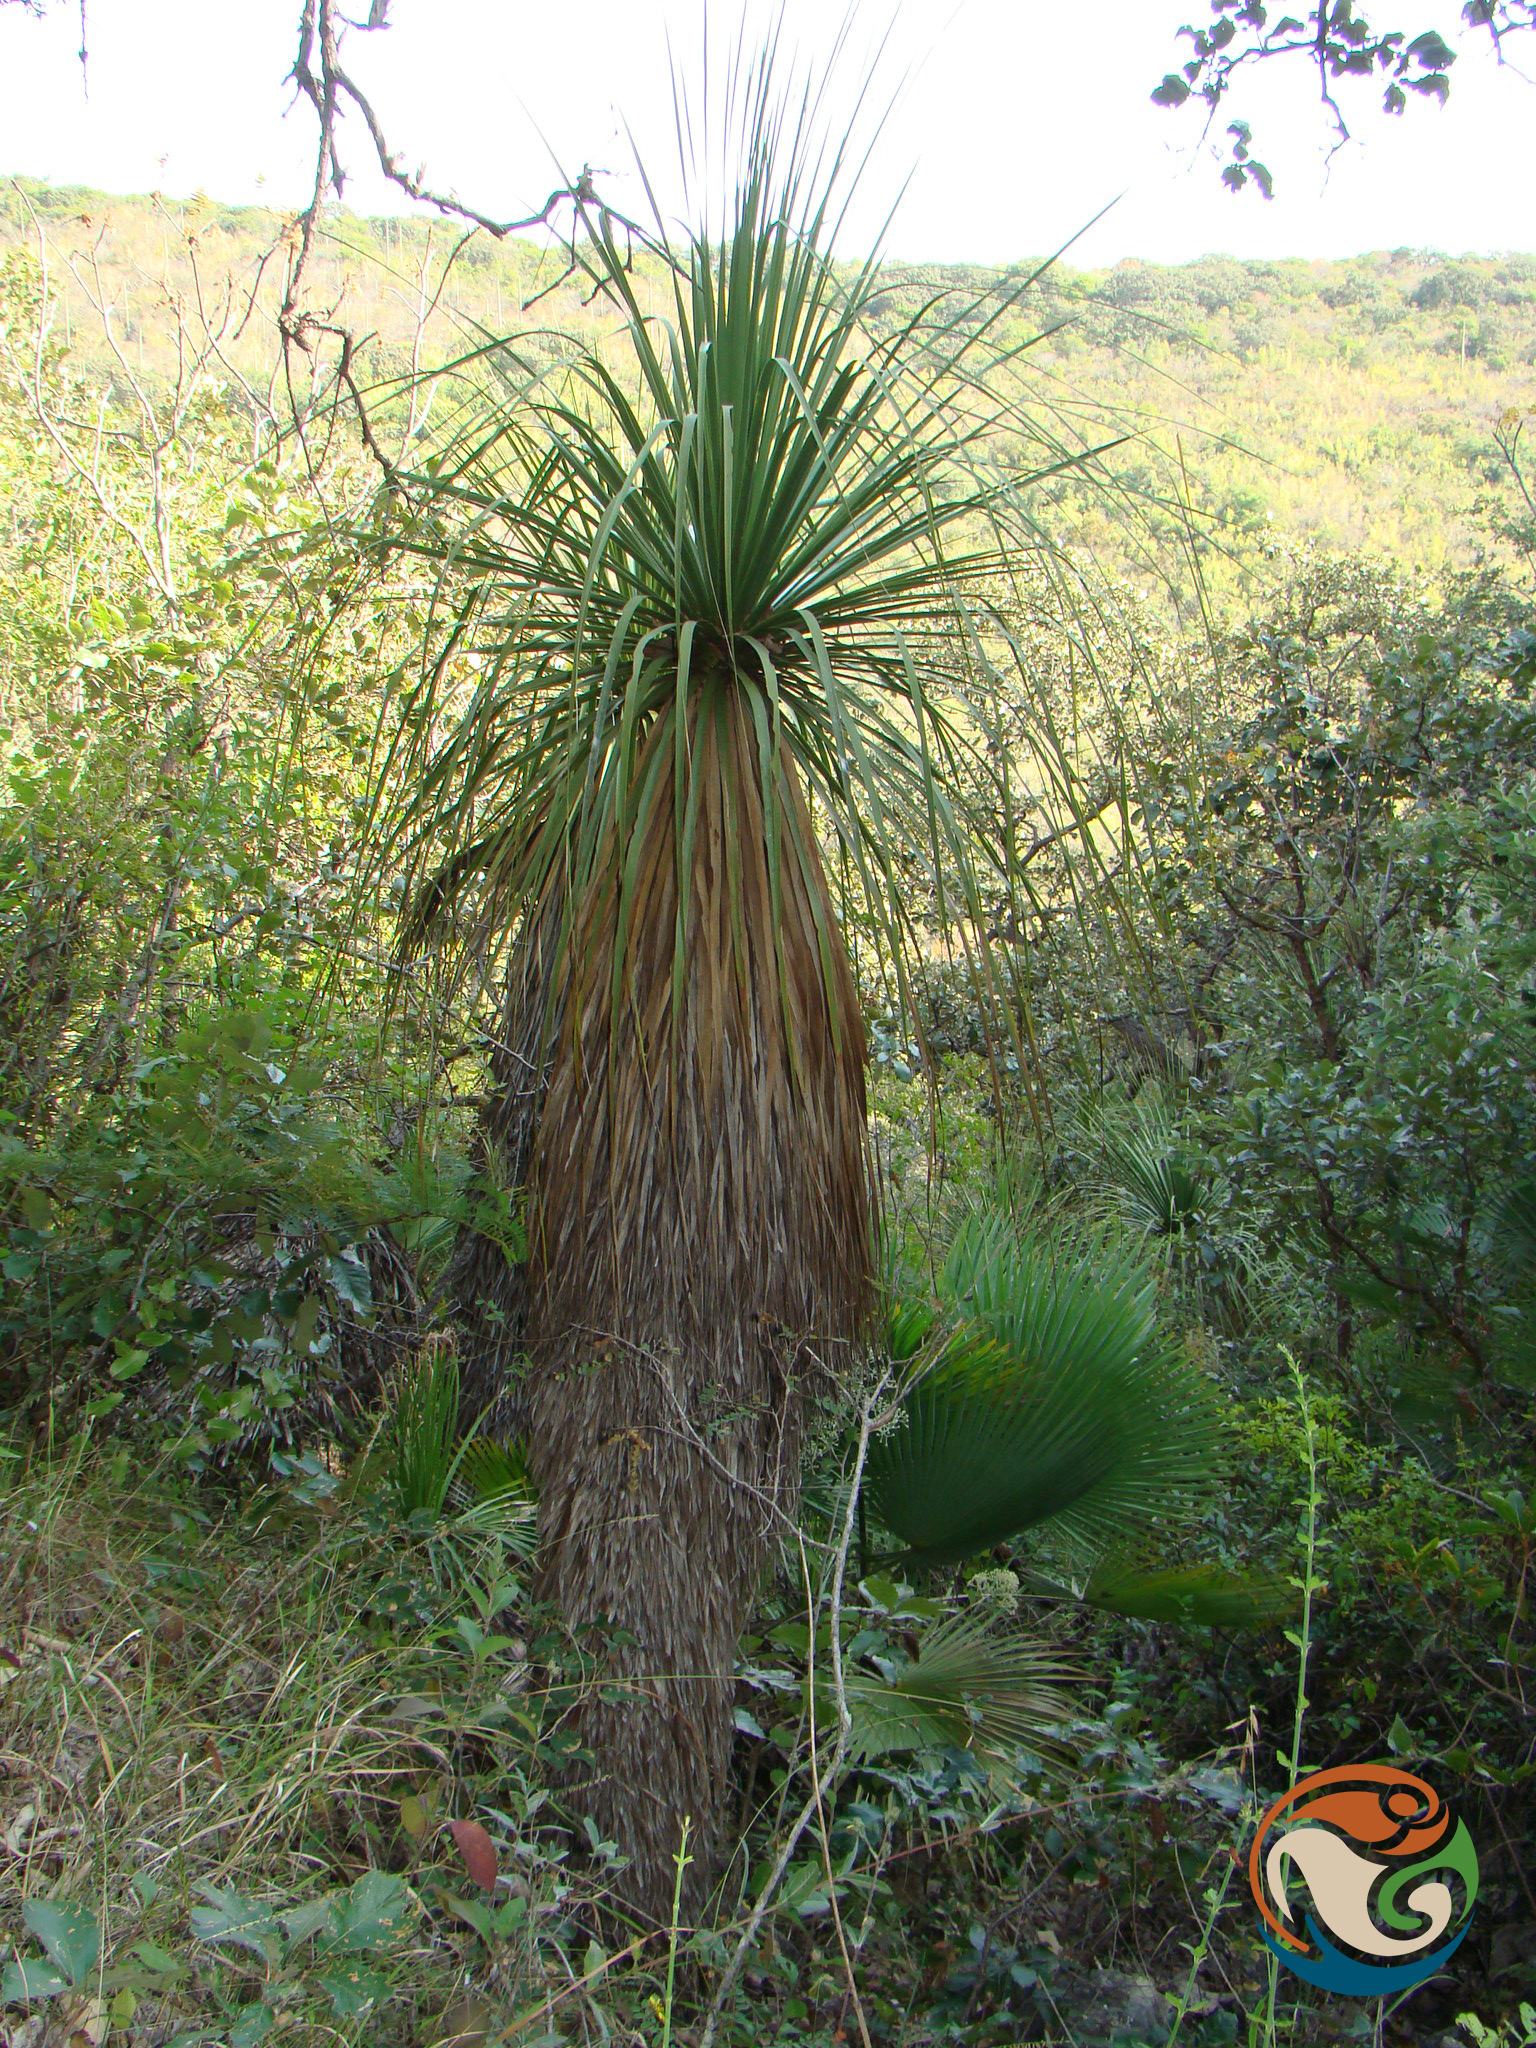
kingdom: Plantae
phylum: Tracheophyta
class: Liliopsida
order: Asparagales
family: Asparagaceae
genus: Nolina
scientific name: Nolina parviflora
